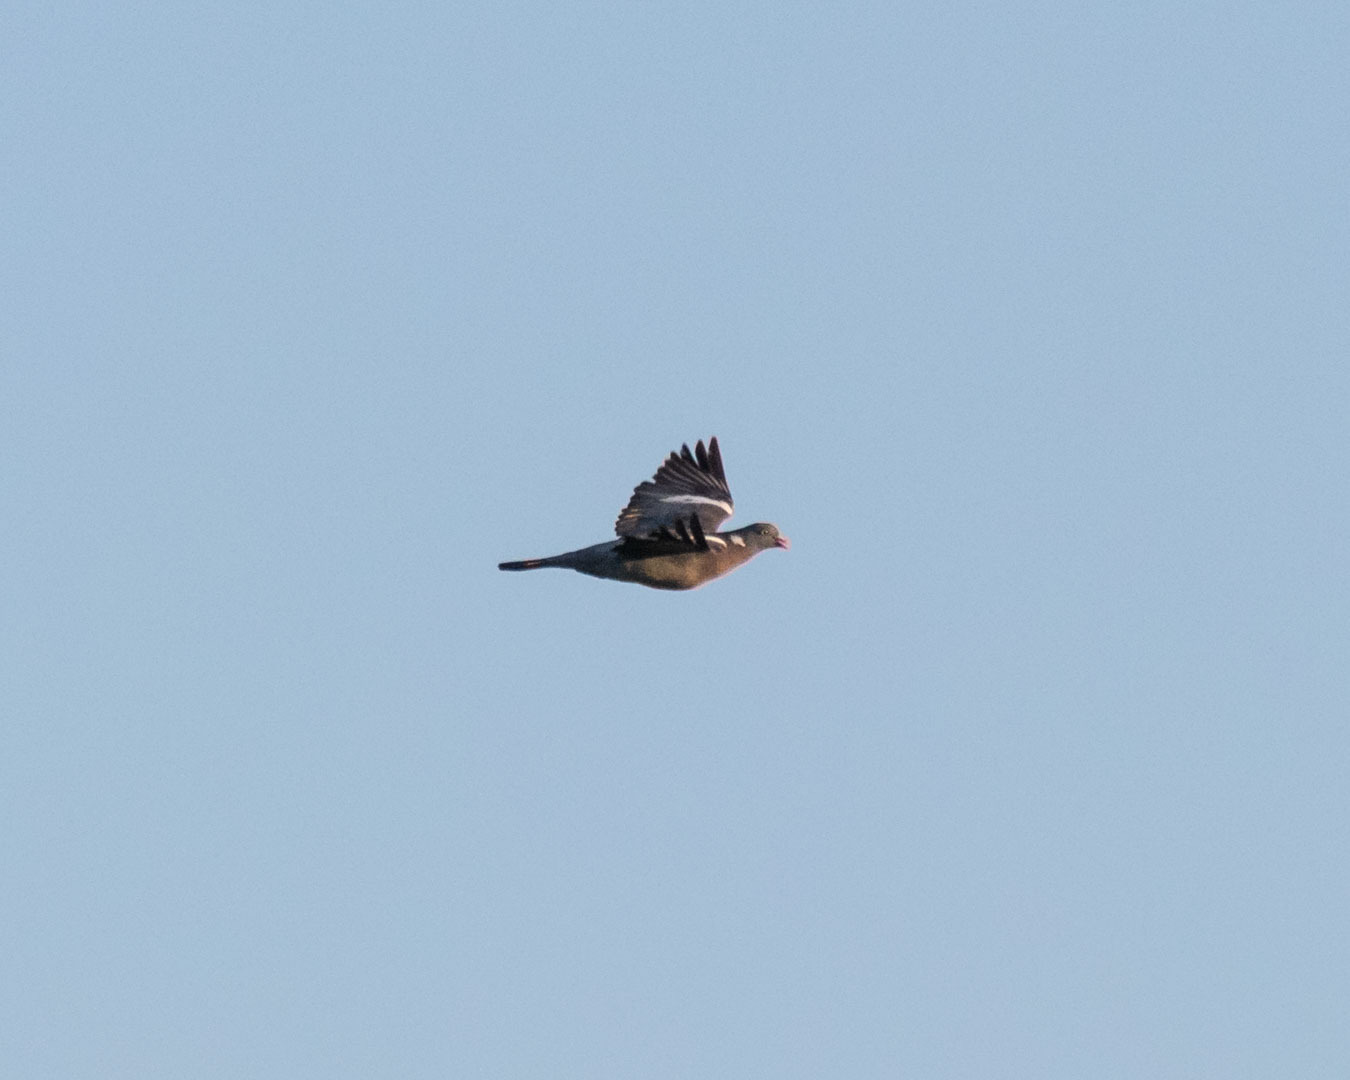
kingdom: Animalia
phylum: Chordata
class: Aves
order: Columbiformes
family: Columbidae
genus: Columba
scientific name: Columba palumbus
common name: Common wood pigeon
